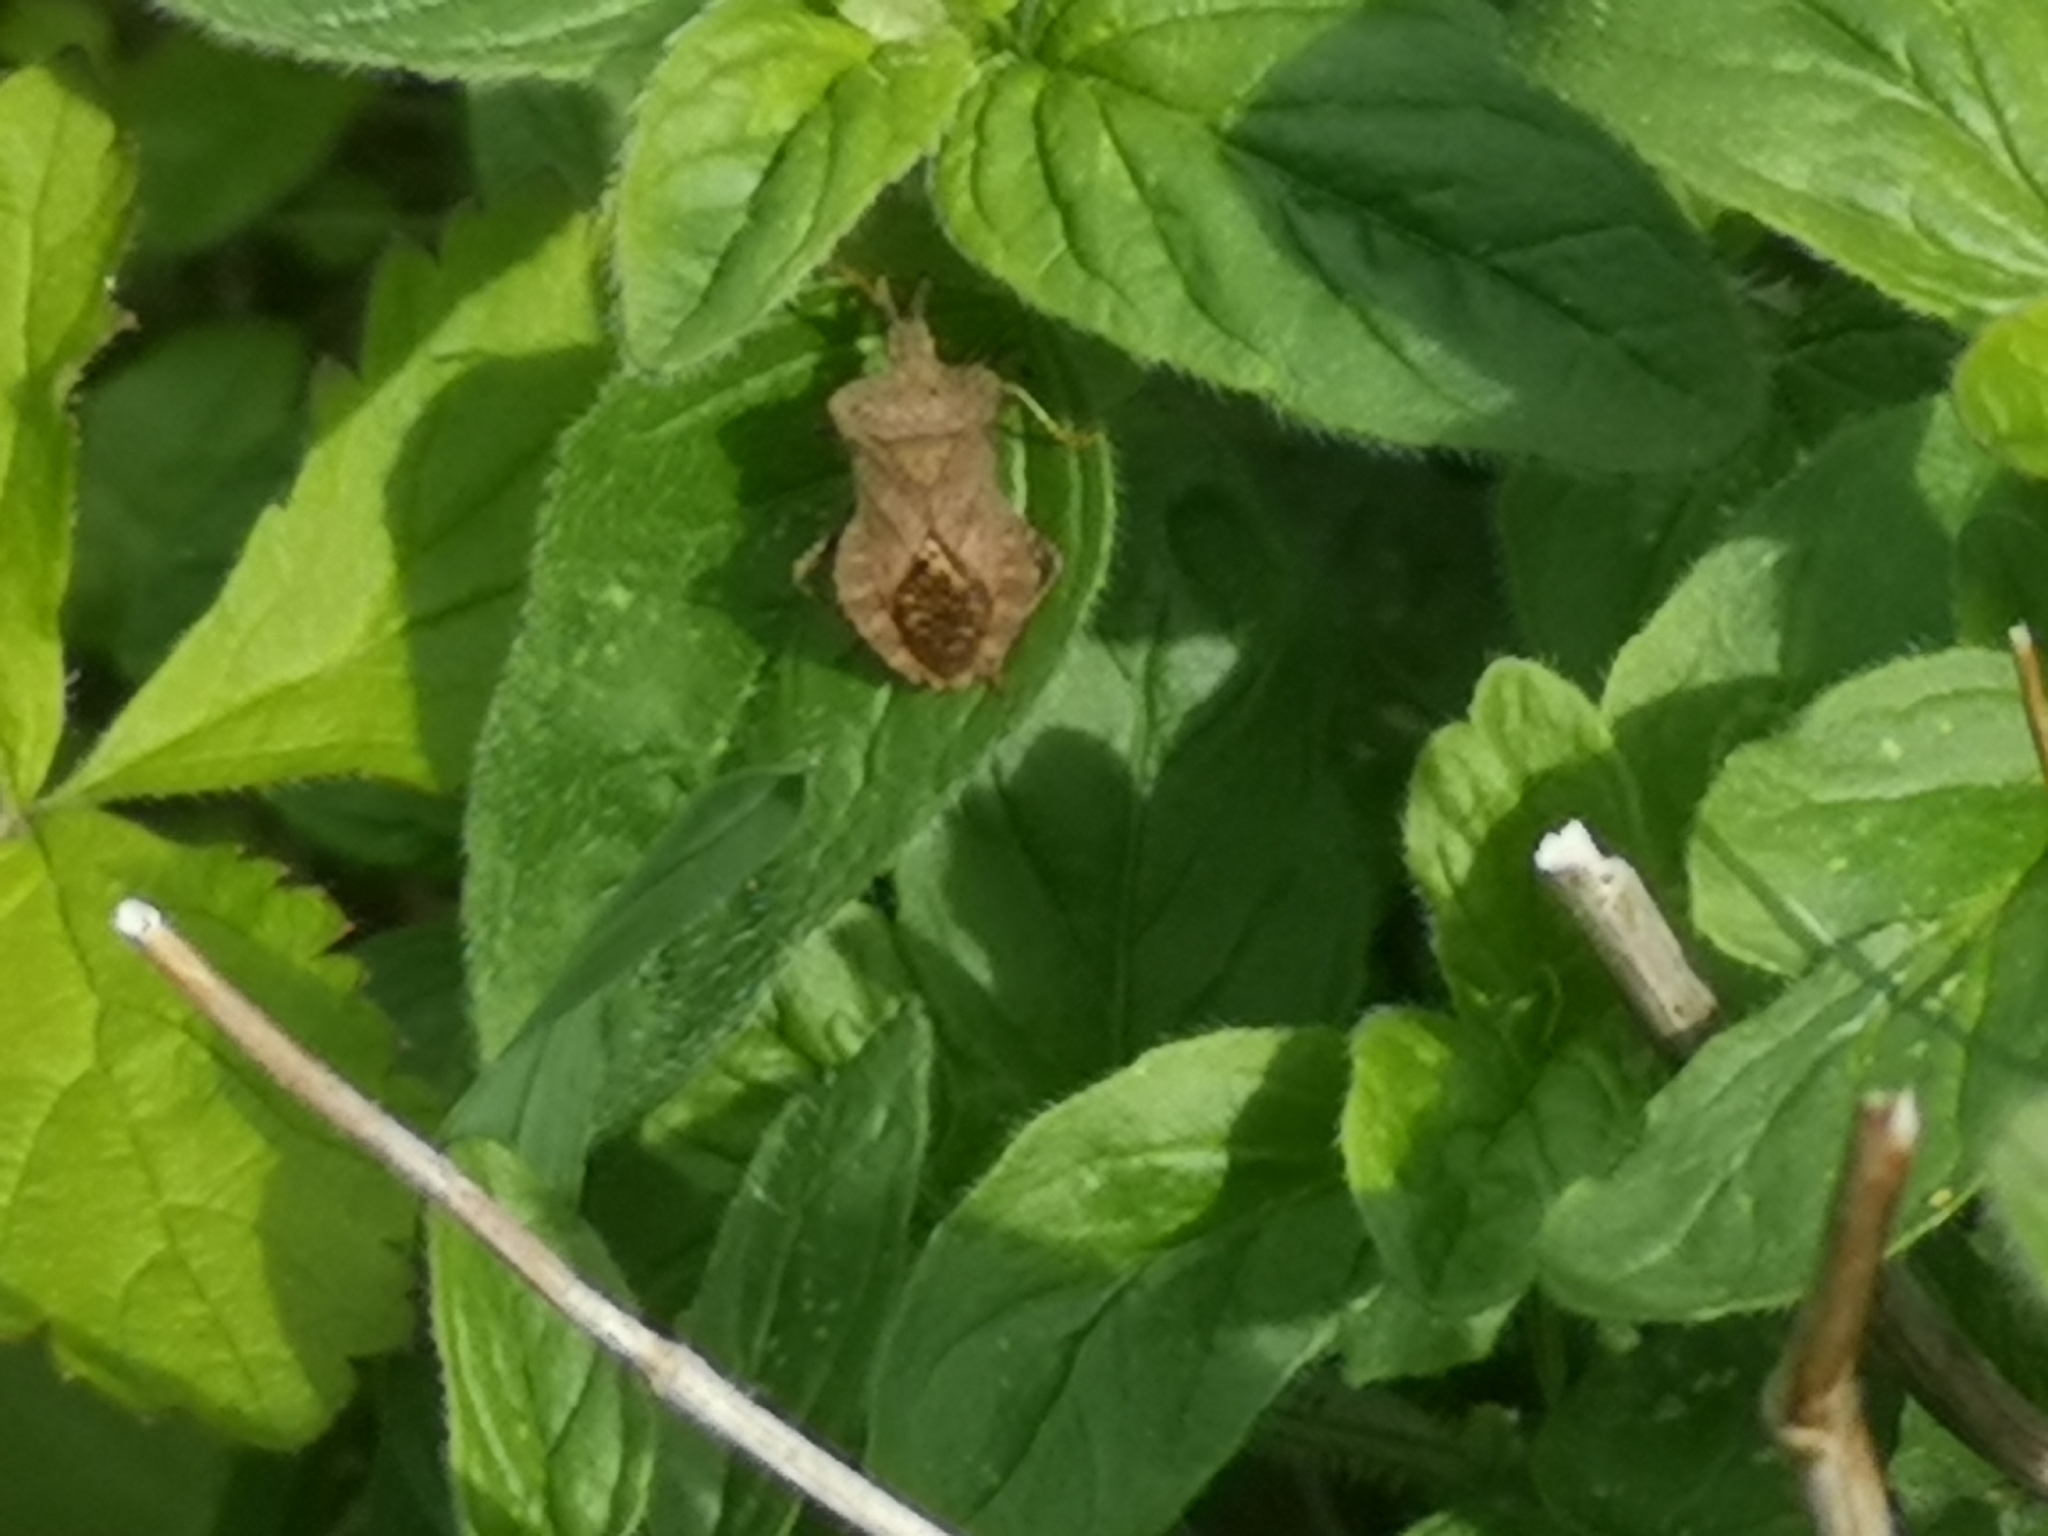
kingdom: Animalia
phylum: Arthropoda
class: Insecta
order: Hemiptera
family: Coreidae
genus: Coreus
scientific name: Coreus marginatus
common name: Dock bug
